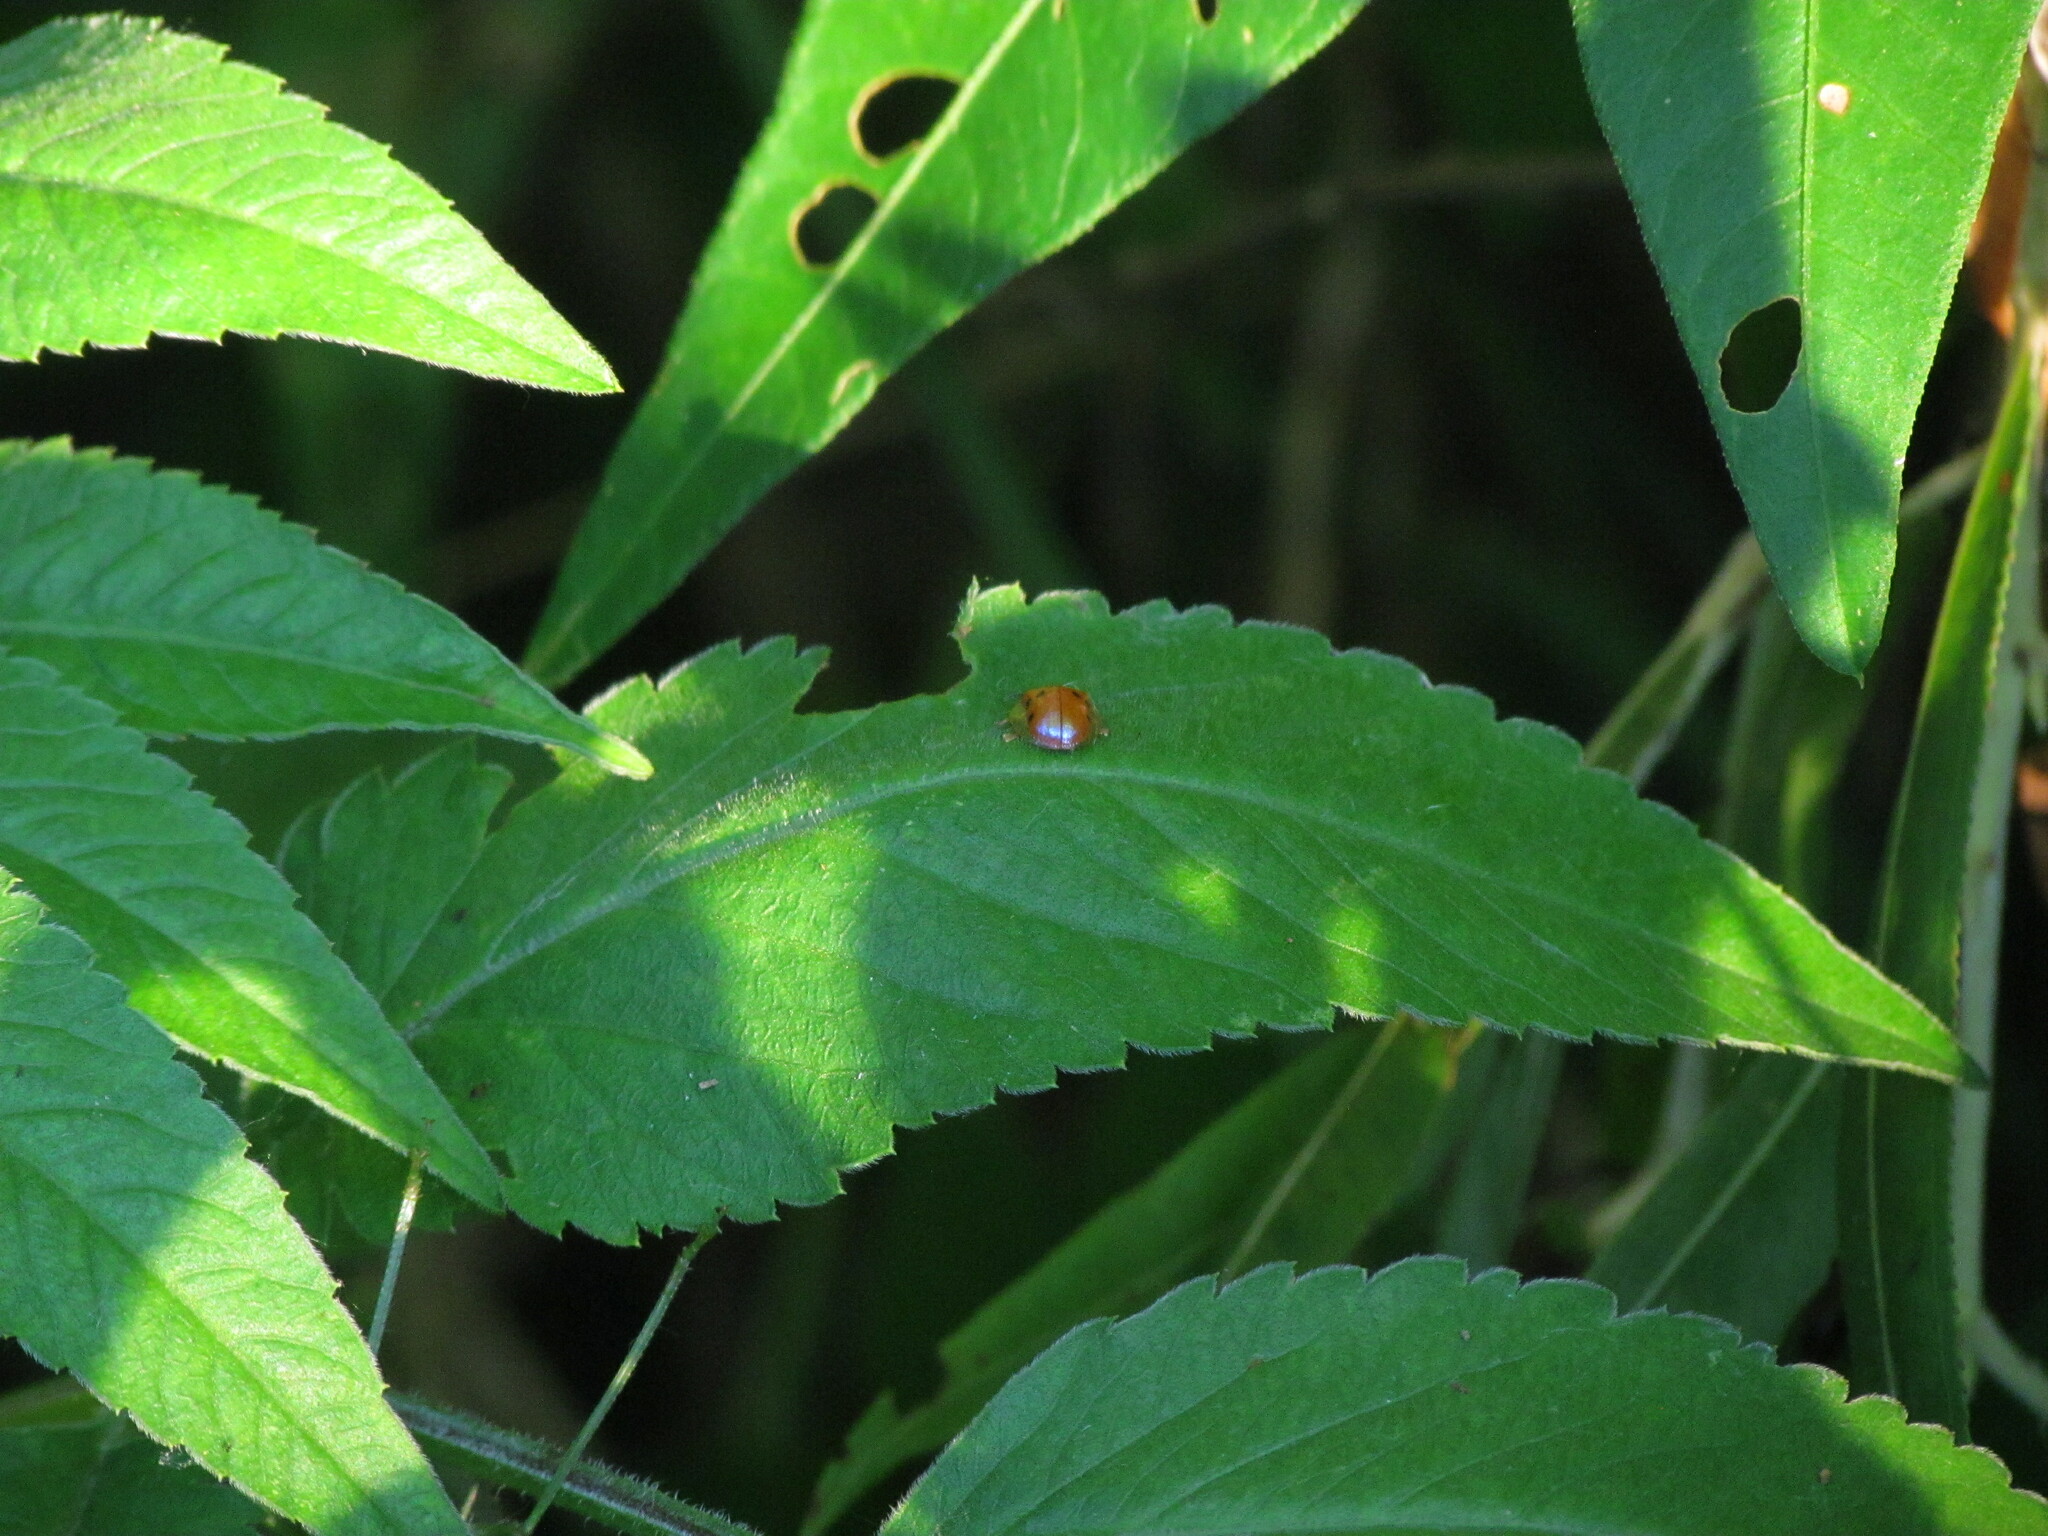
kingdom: Animalia
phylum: Arthropoda
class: Insecta
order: Coleoptera
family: Chrysomelidae
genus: Charidotella
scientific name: Charidotella sexpunctata
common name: Golden tortoise beetle
